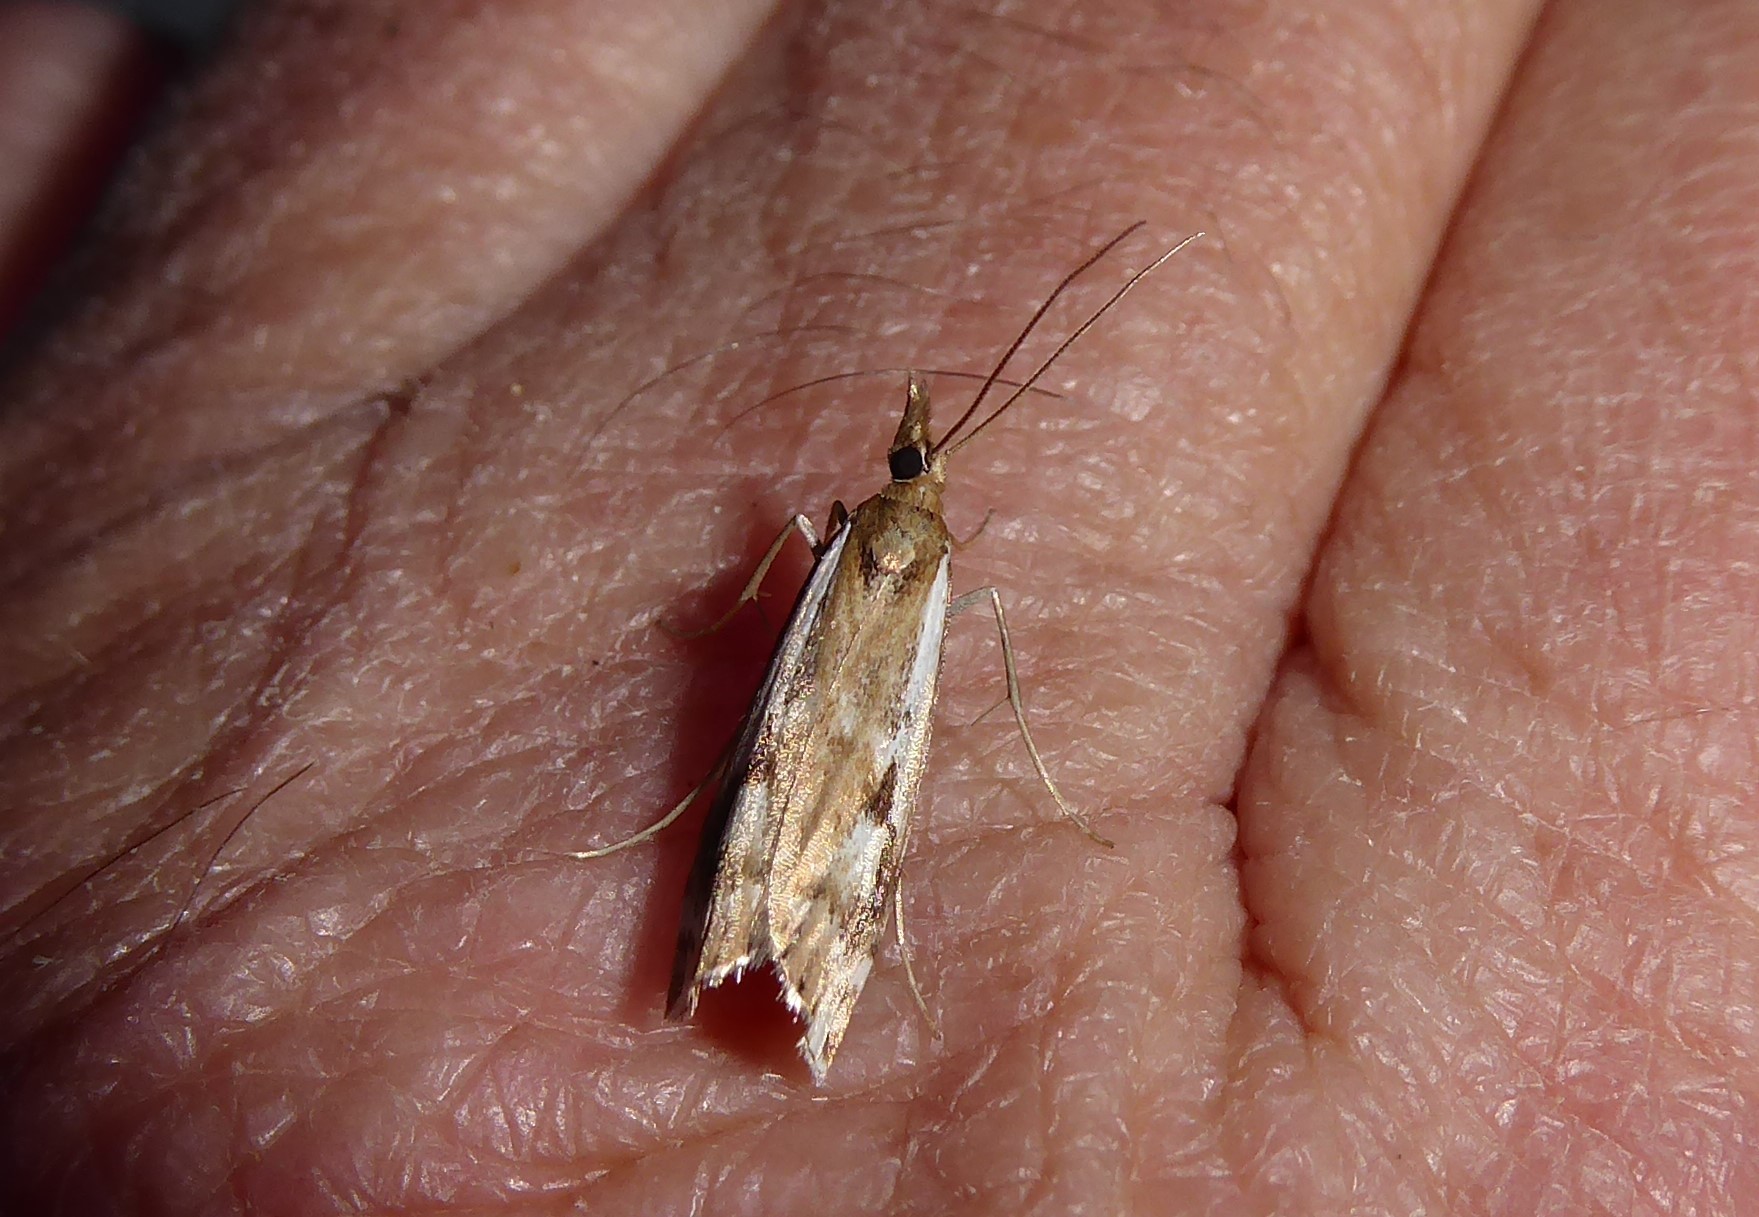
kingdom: Animalia
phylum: Arthropoda
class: Insecta
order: Lepidoptera
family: Crambidae
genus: Orocrambus
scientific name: Orocrambus vulgaris
